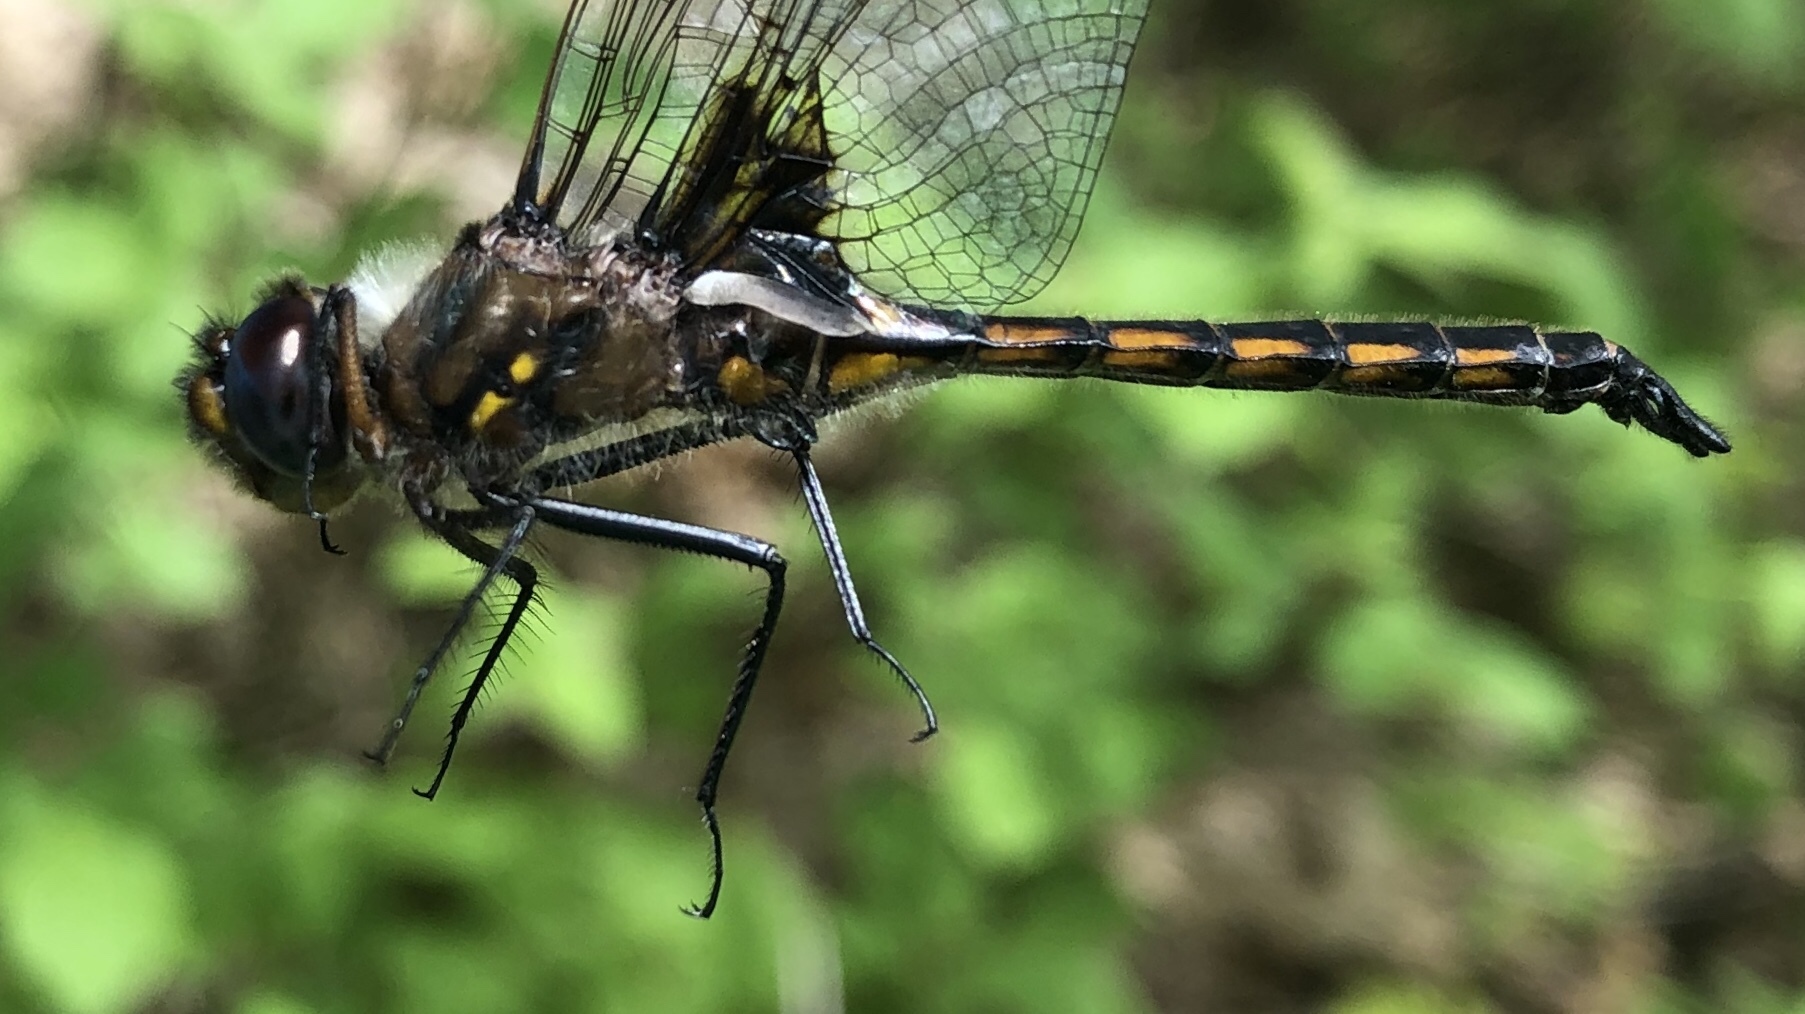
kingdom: Animalia
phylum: Arthropoda
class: Insecta
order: Odonata
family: Corduliidae
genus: Epitheca
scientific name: Epitheca cynosura
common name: Common baskettail
